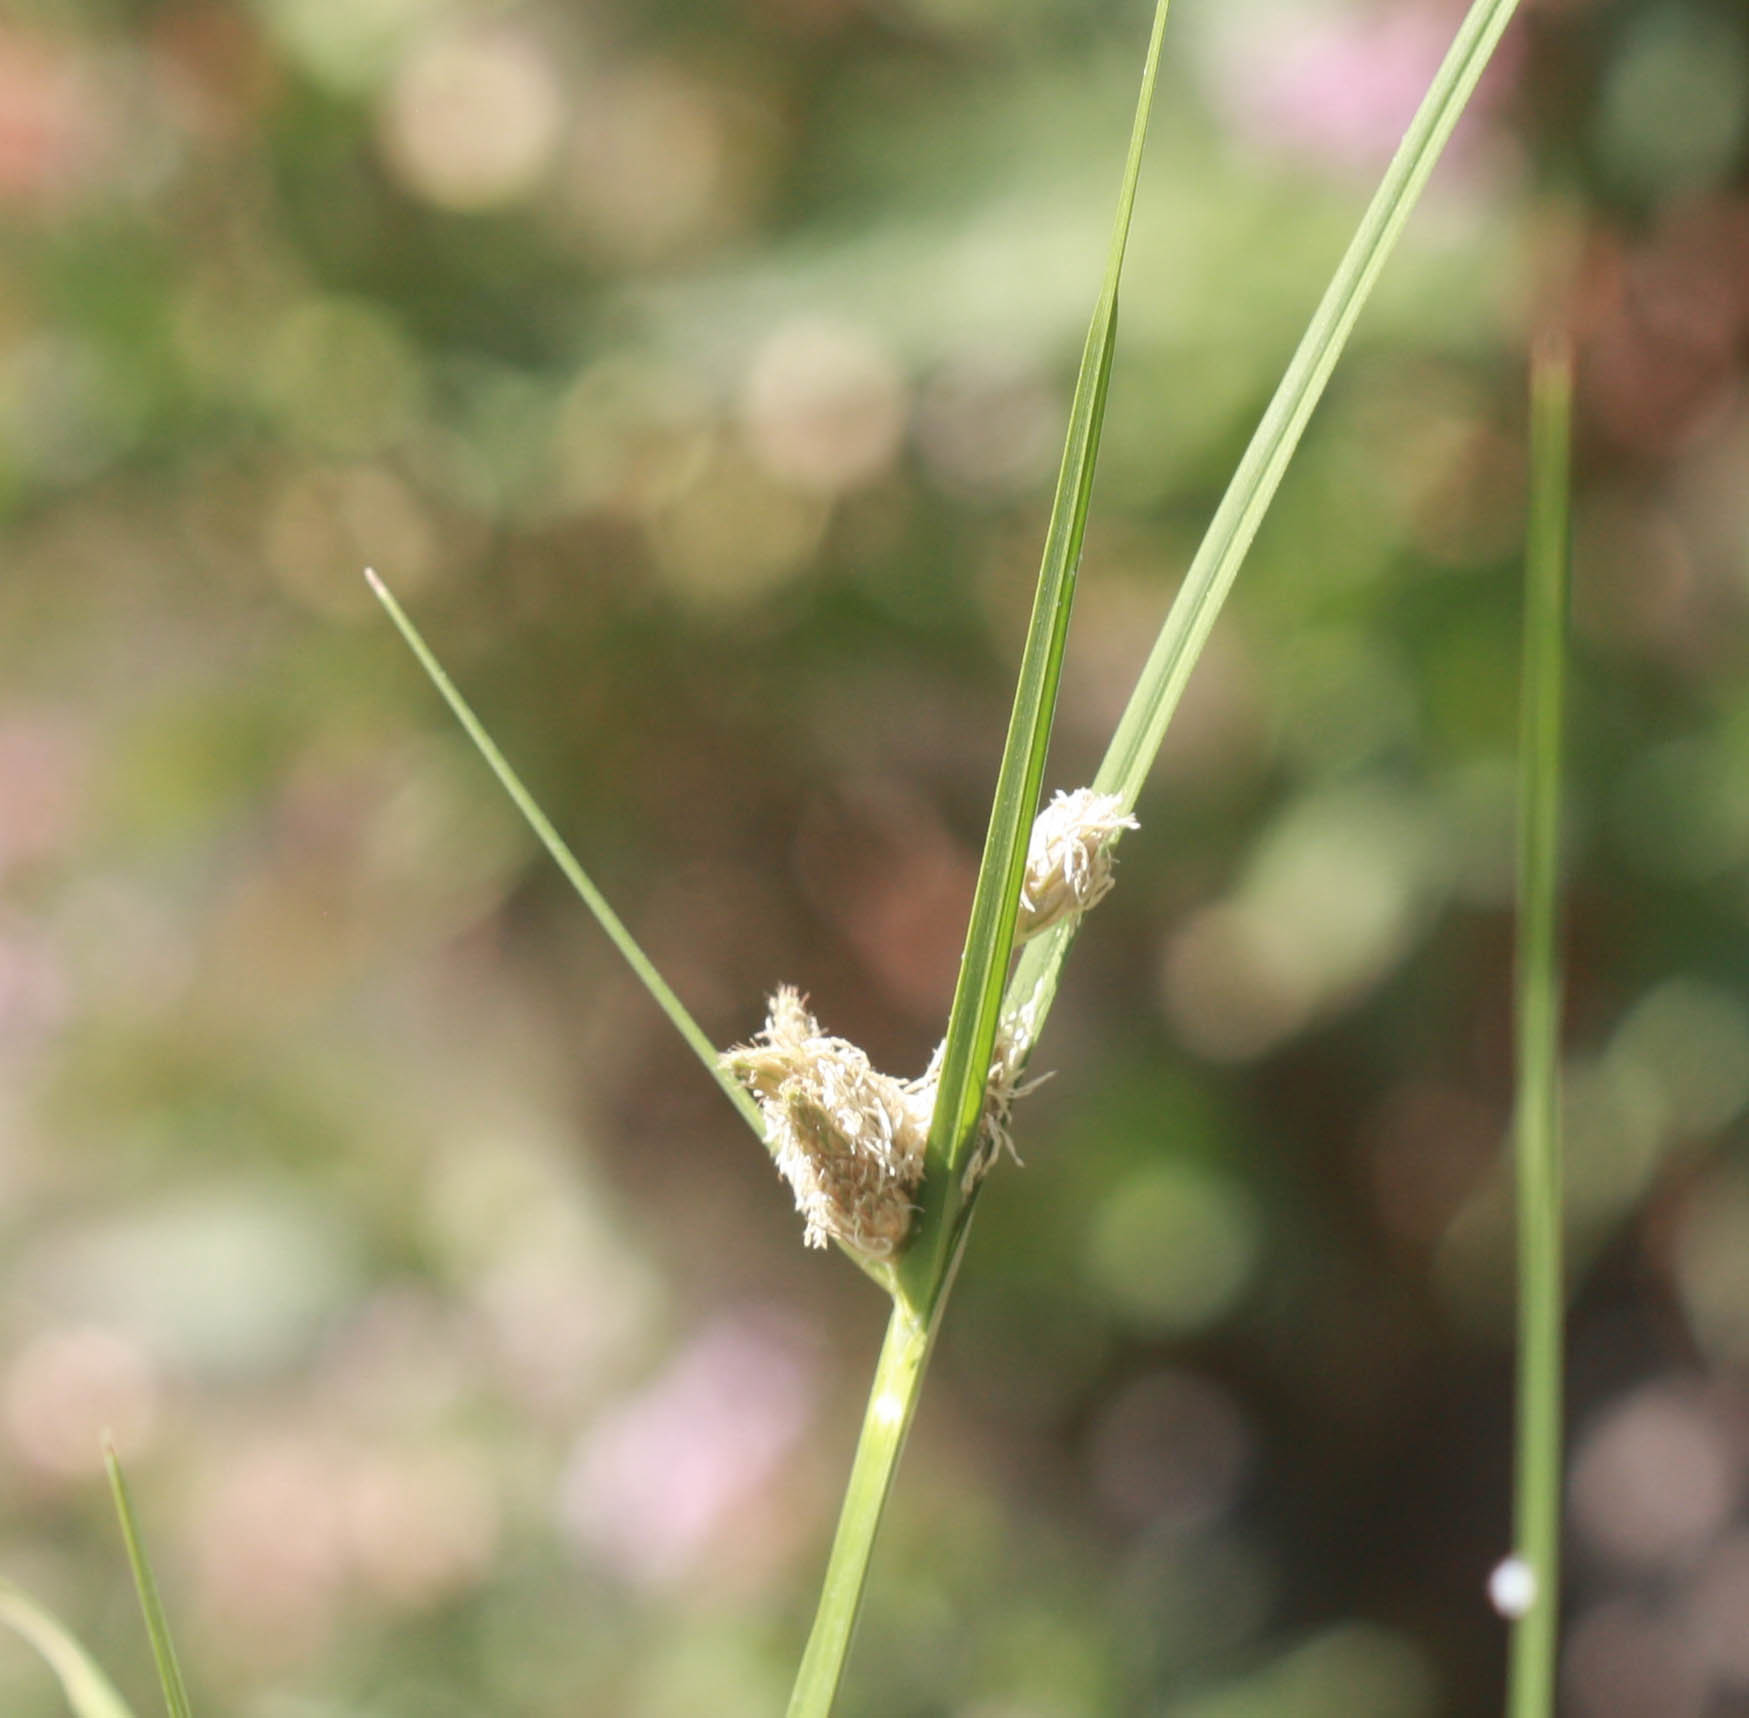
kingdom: Plantae
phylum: Tracheophyta
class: Liliopsida
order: Poales
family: Cyperaceae
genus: Bolboschoenus
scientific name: Bolboschoenus maritimus
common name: Sea club-rush
